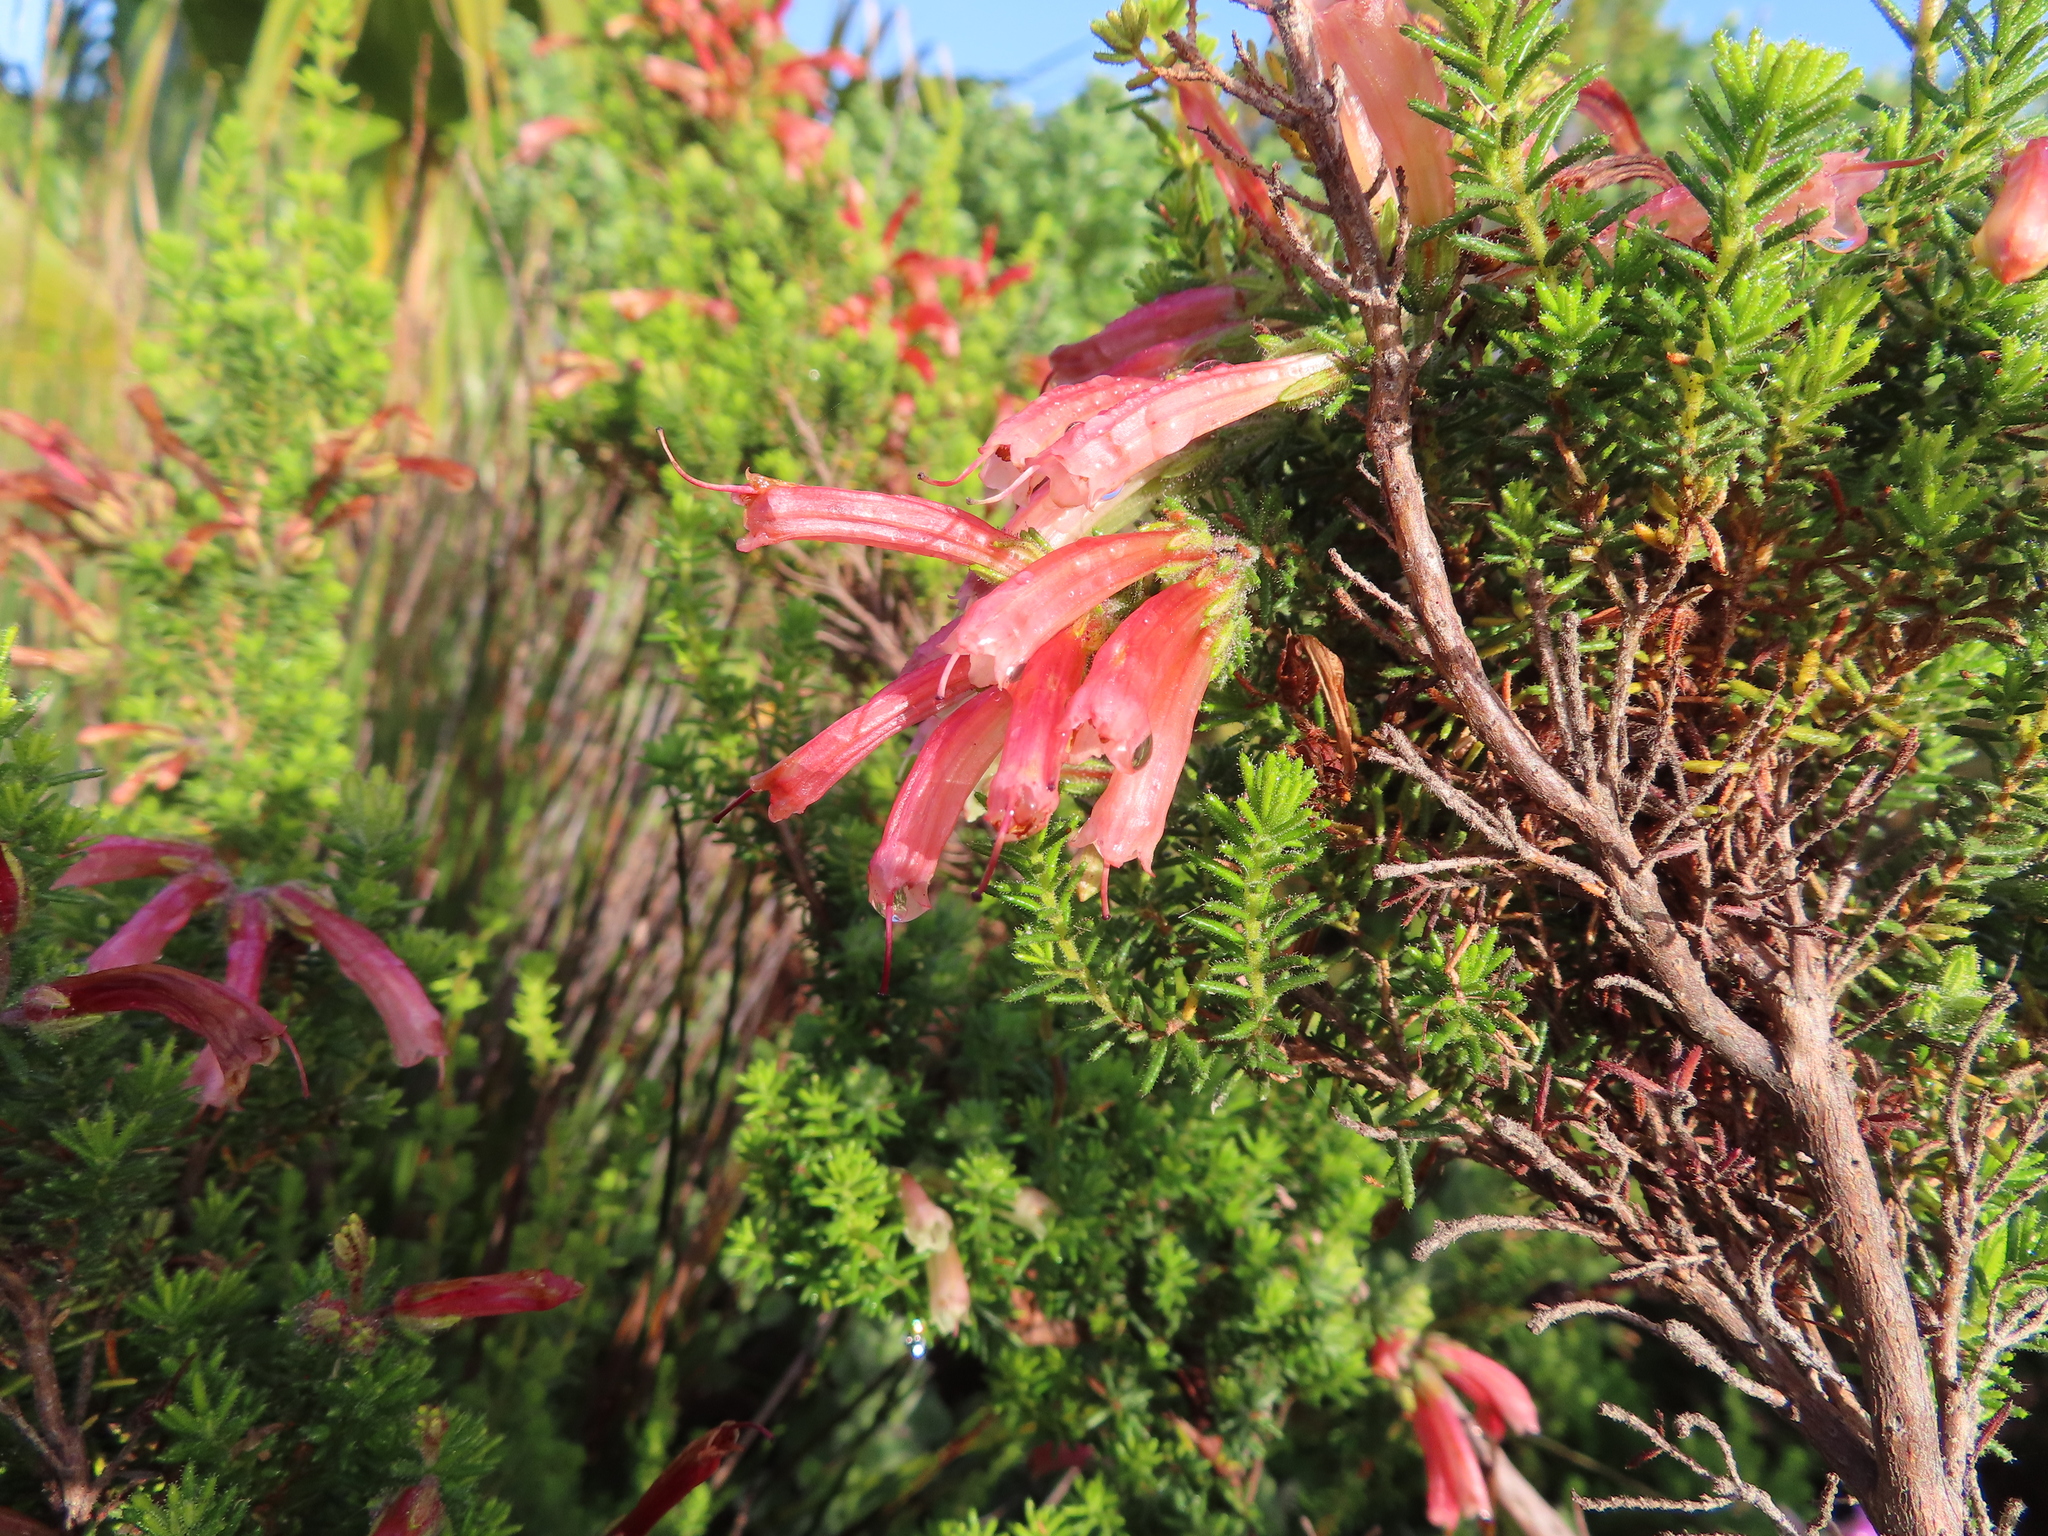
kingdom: Plantae
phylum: Tracheophyta
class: Magnoliopsida
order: Ericales
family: Ericaceae
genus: Erica
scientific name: Erica glandulosa
